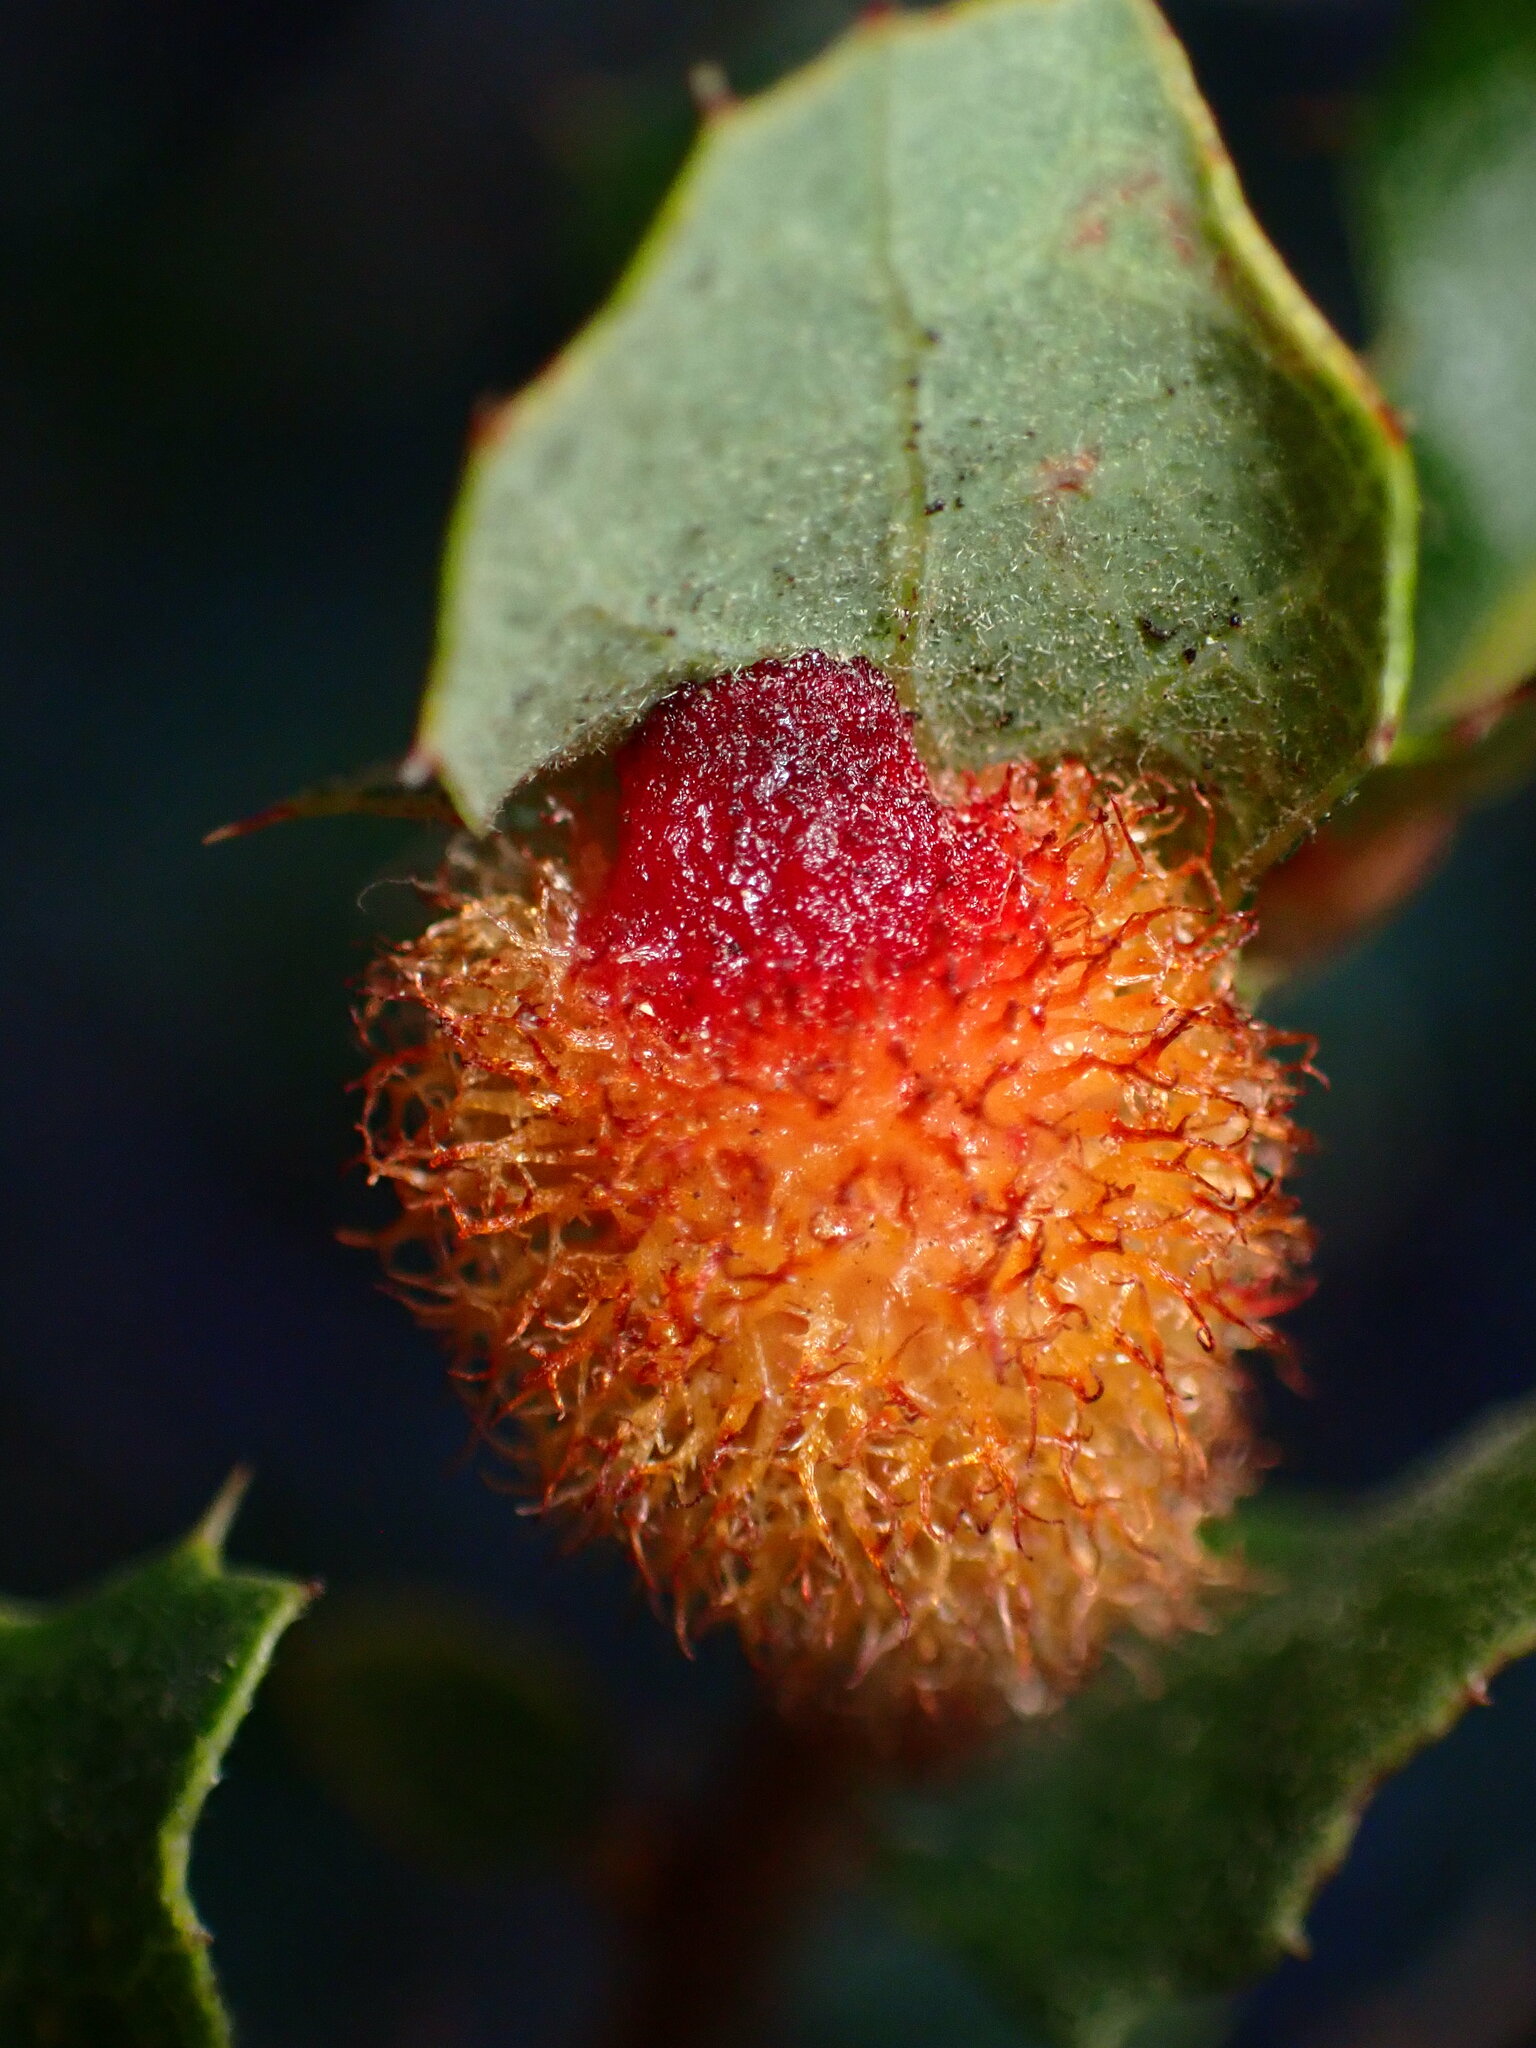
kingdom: Animalia
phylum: Arthropoda
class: Insecta
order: Hymenoptera
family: Cynipidae
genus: Andricus
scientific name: Andricus
